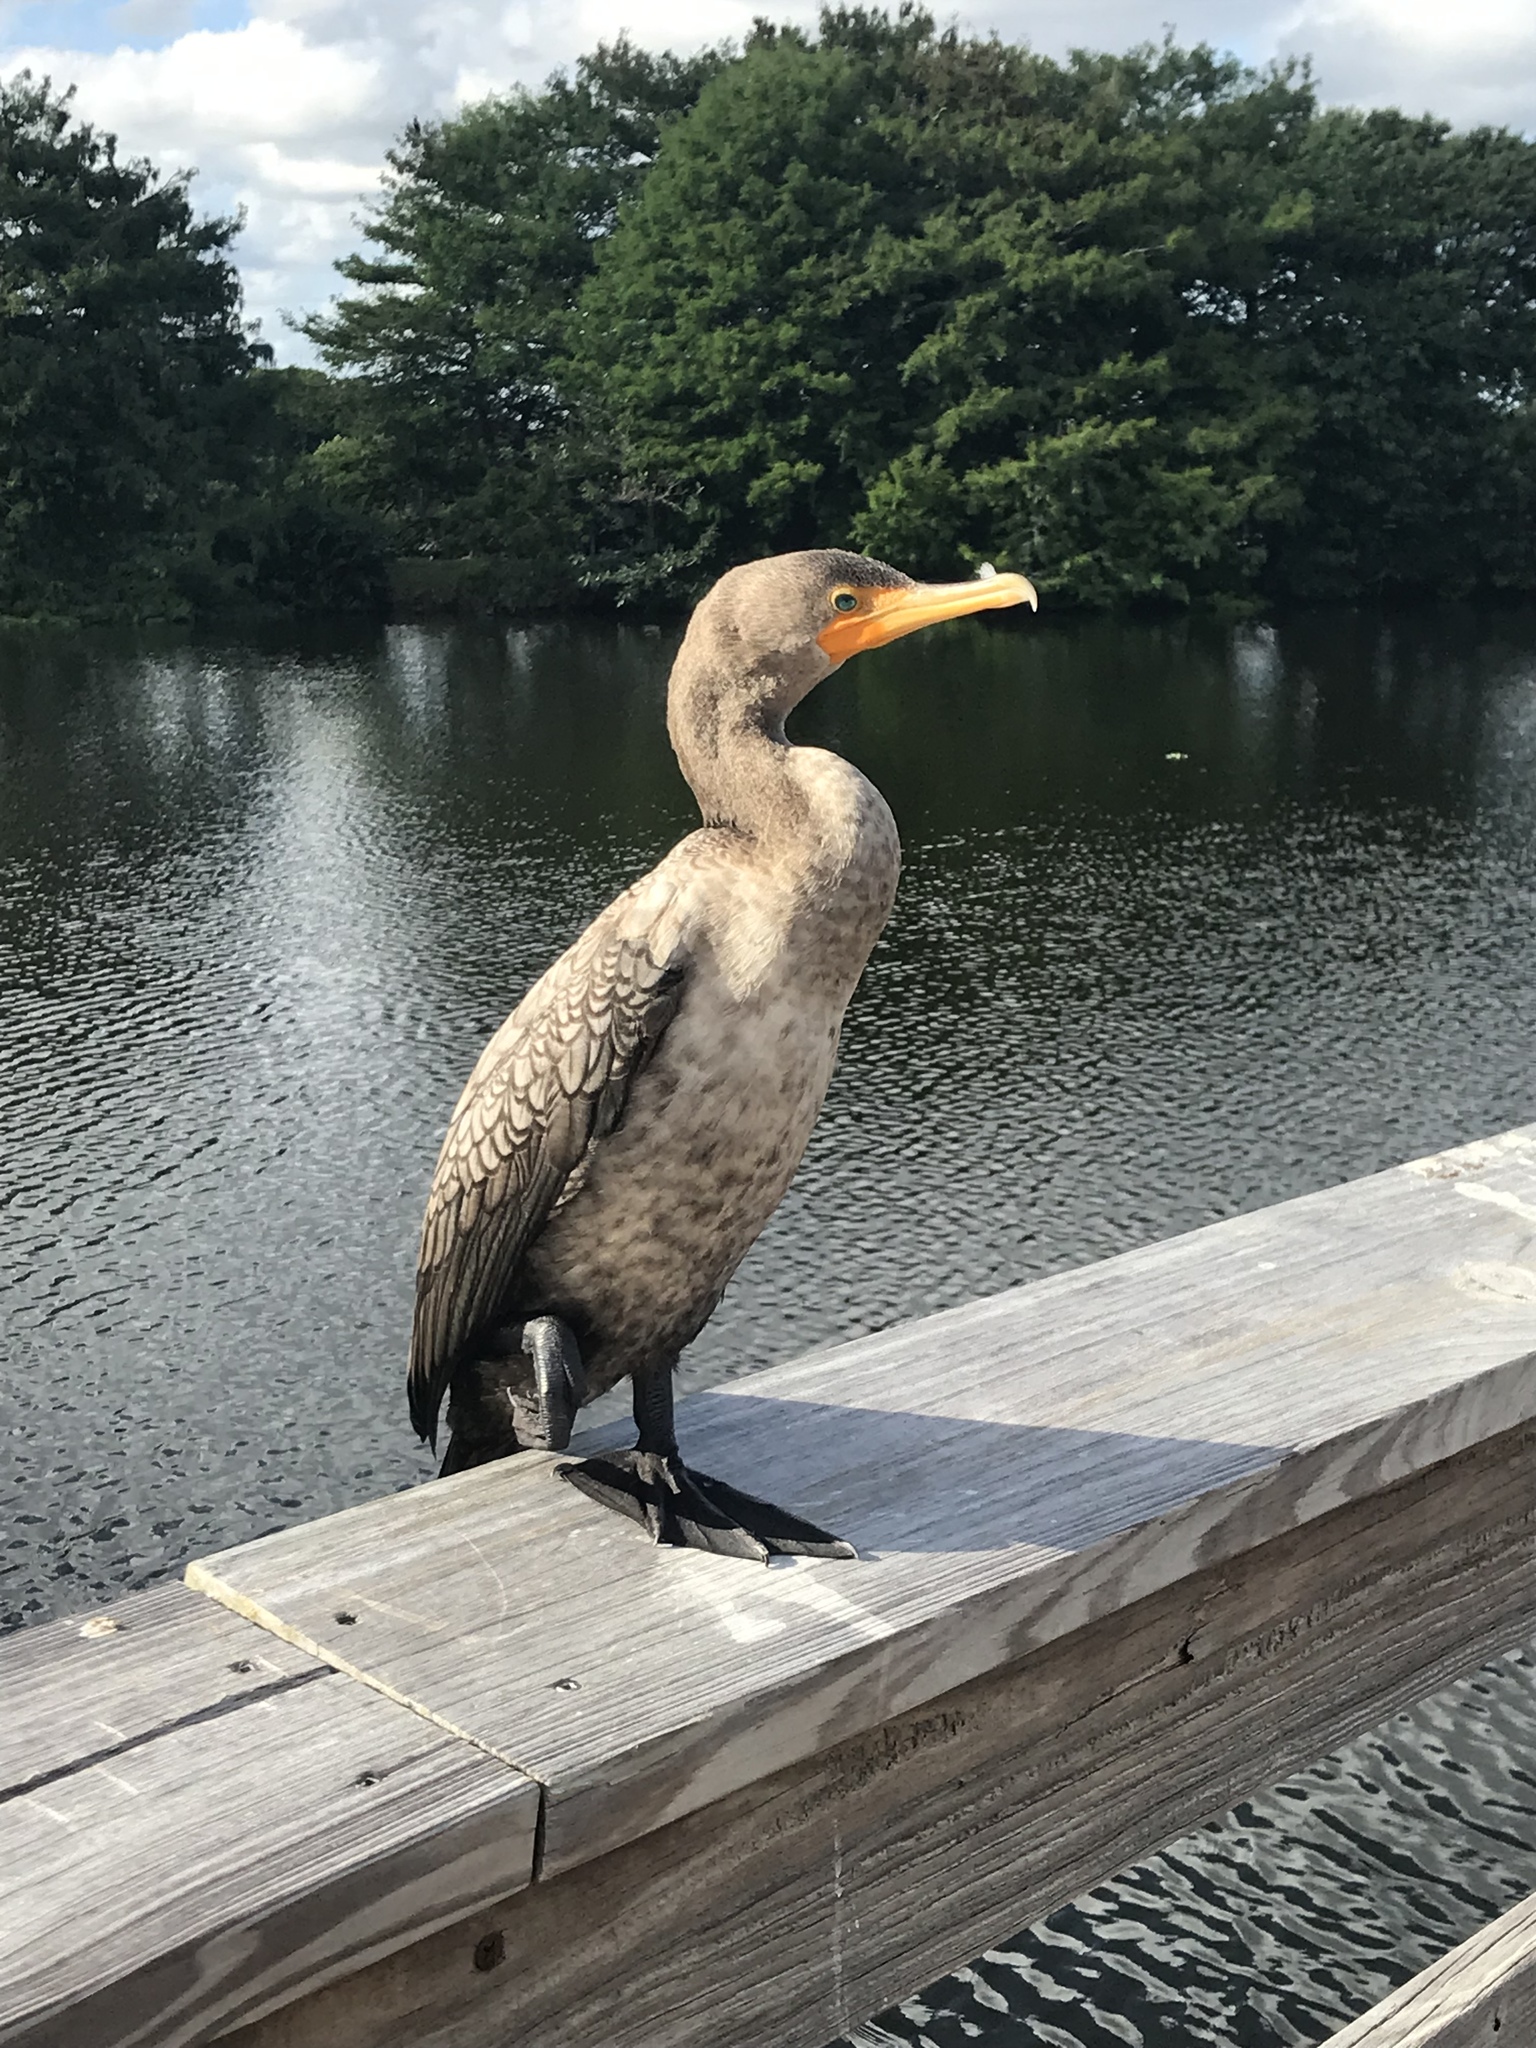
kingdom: Animalia
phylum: Chordata
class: Aves
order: Suliformes
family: Phalacrocoracidae
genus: Phalacrocorax
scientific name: Phalacrocorax auritus
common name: Double-crested cormorant
